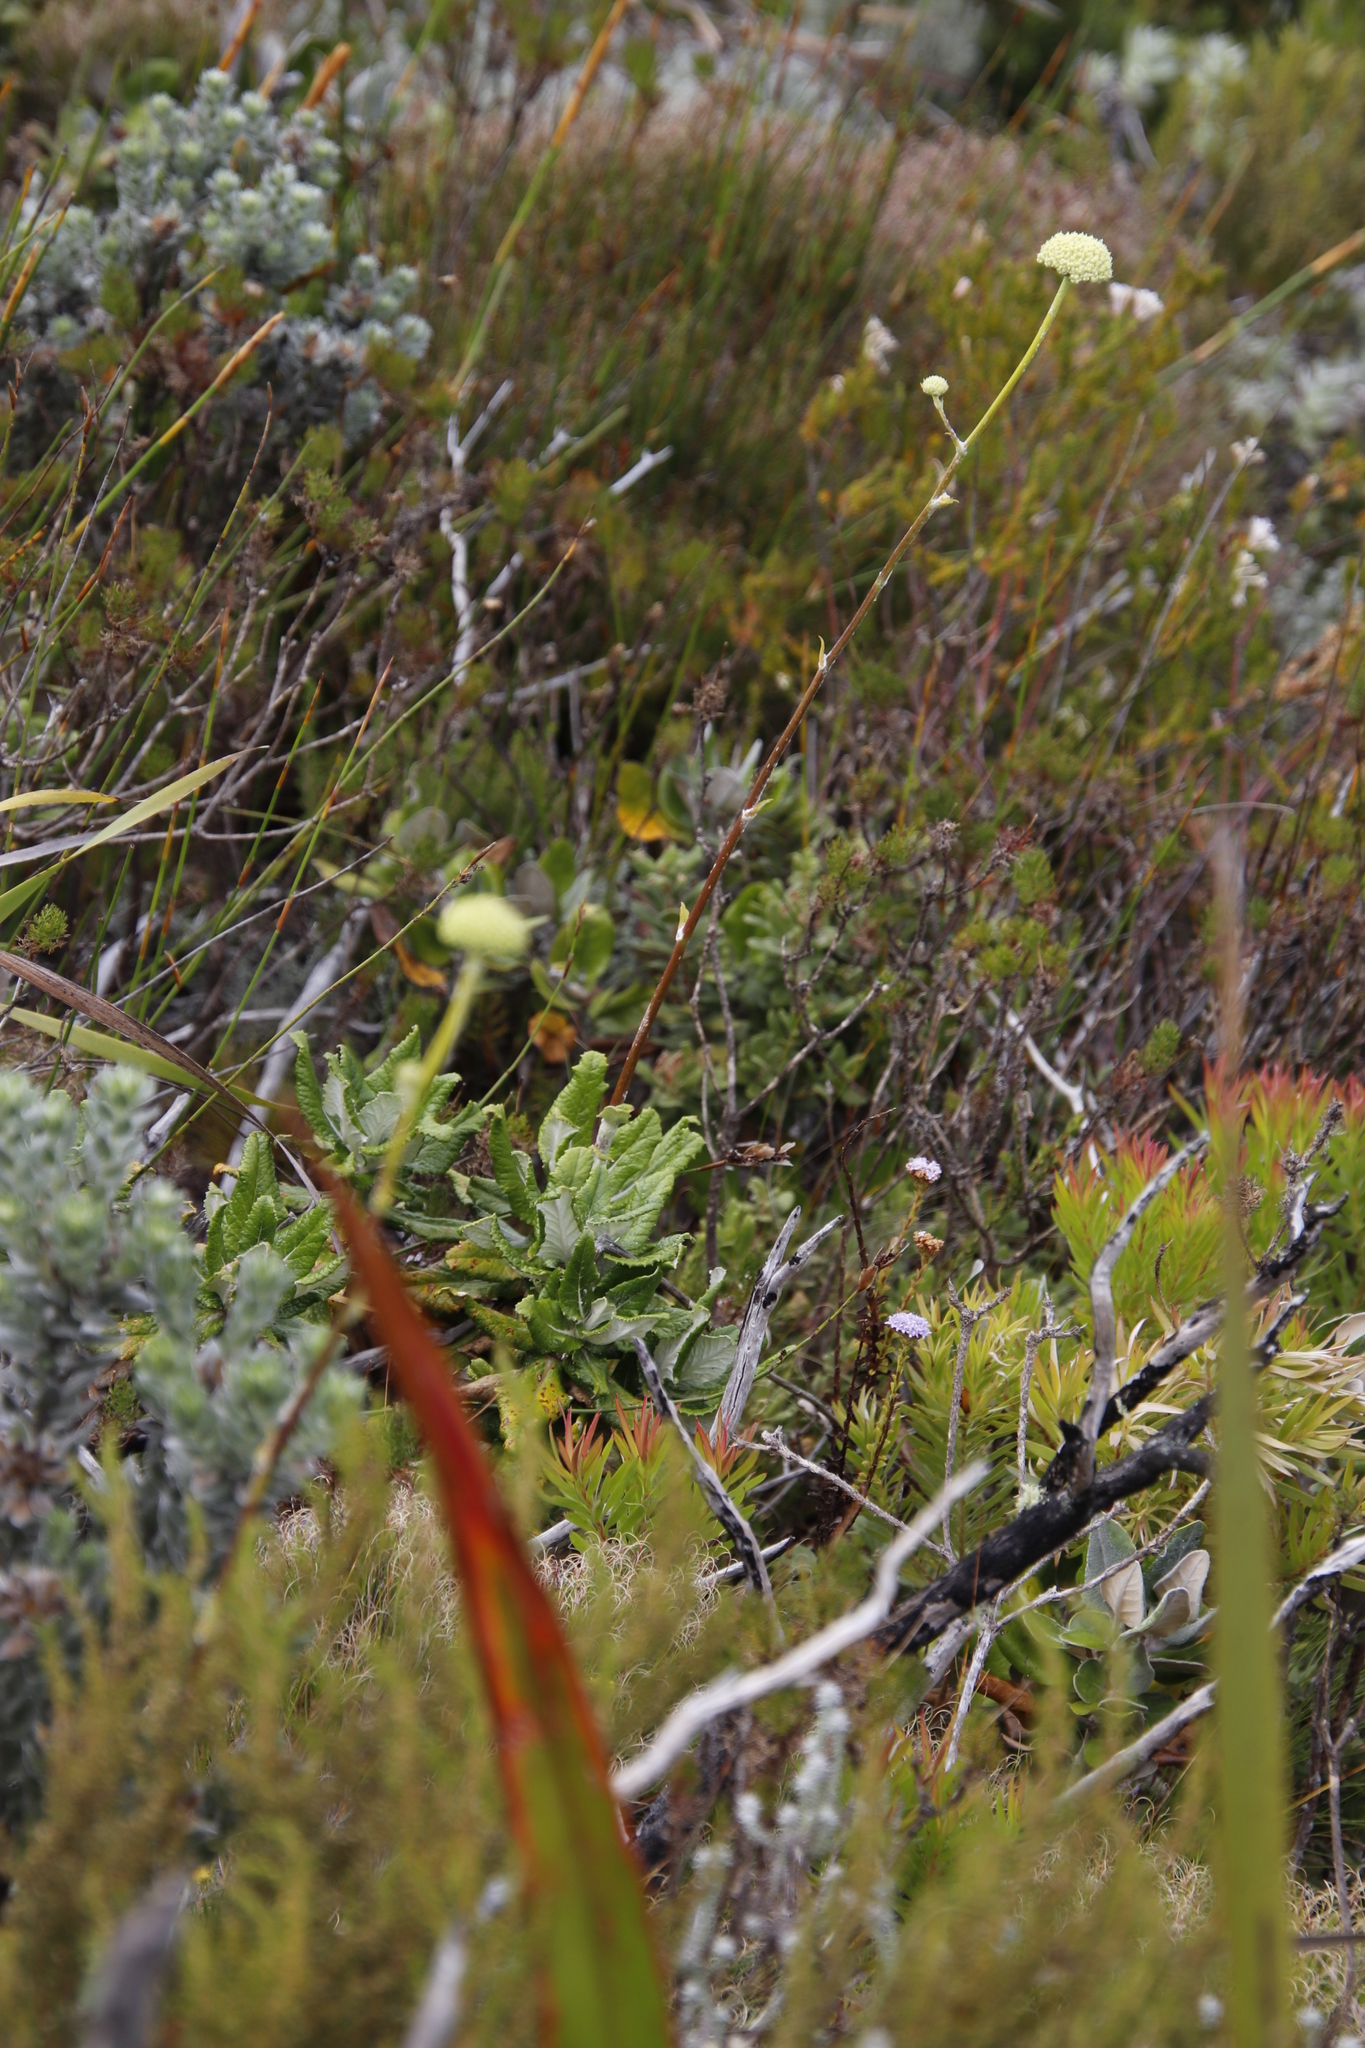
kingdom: Plantae
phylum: Tracheophyta
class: Magnoliopsida
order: Apiales
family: Apiaceae
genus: Hermas
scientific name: Hermas villosa
